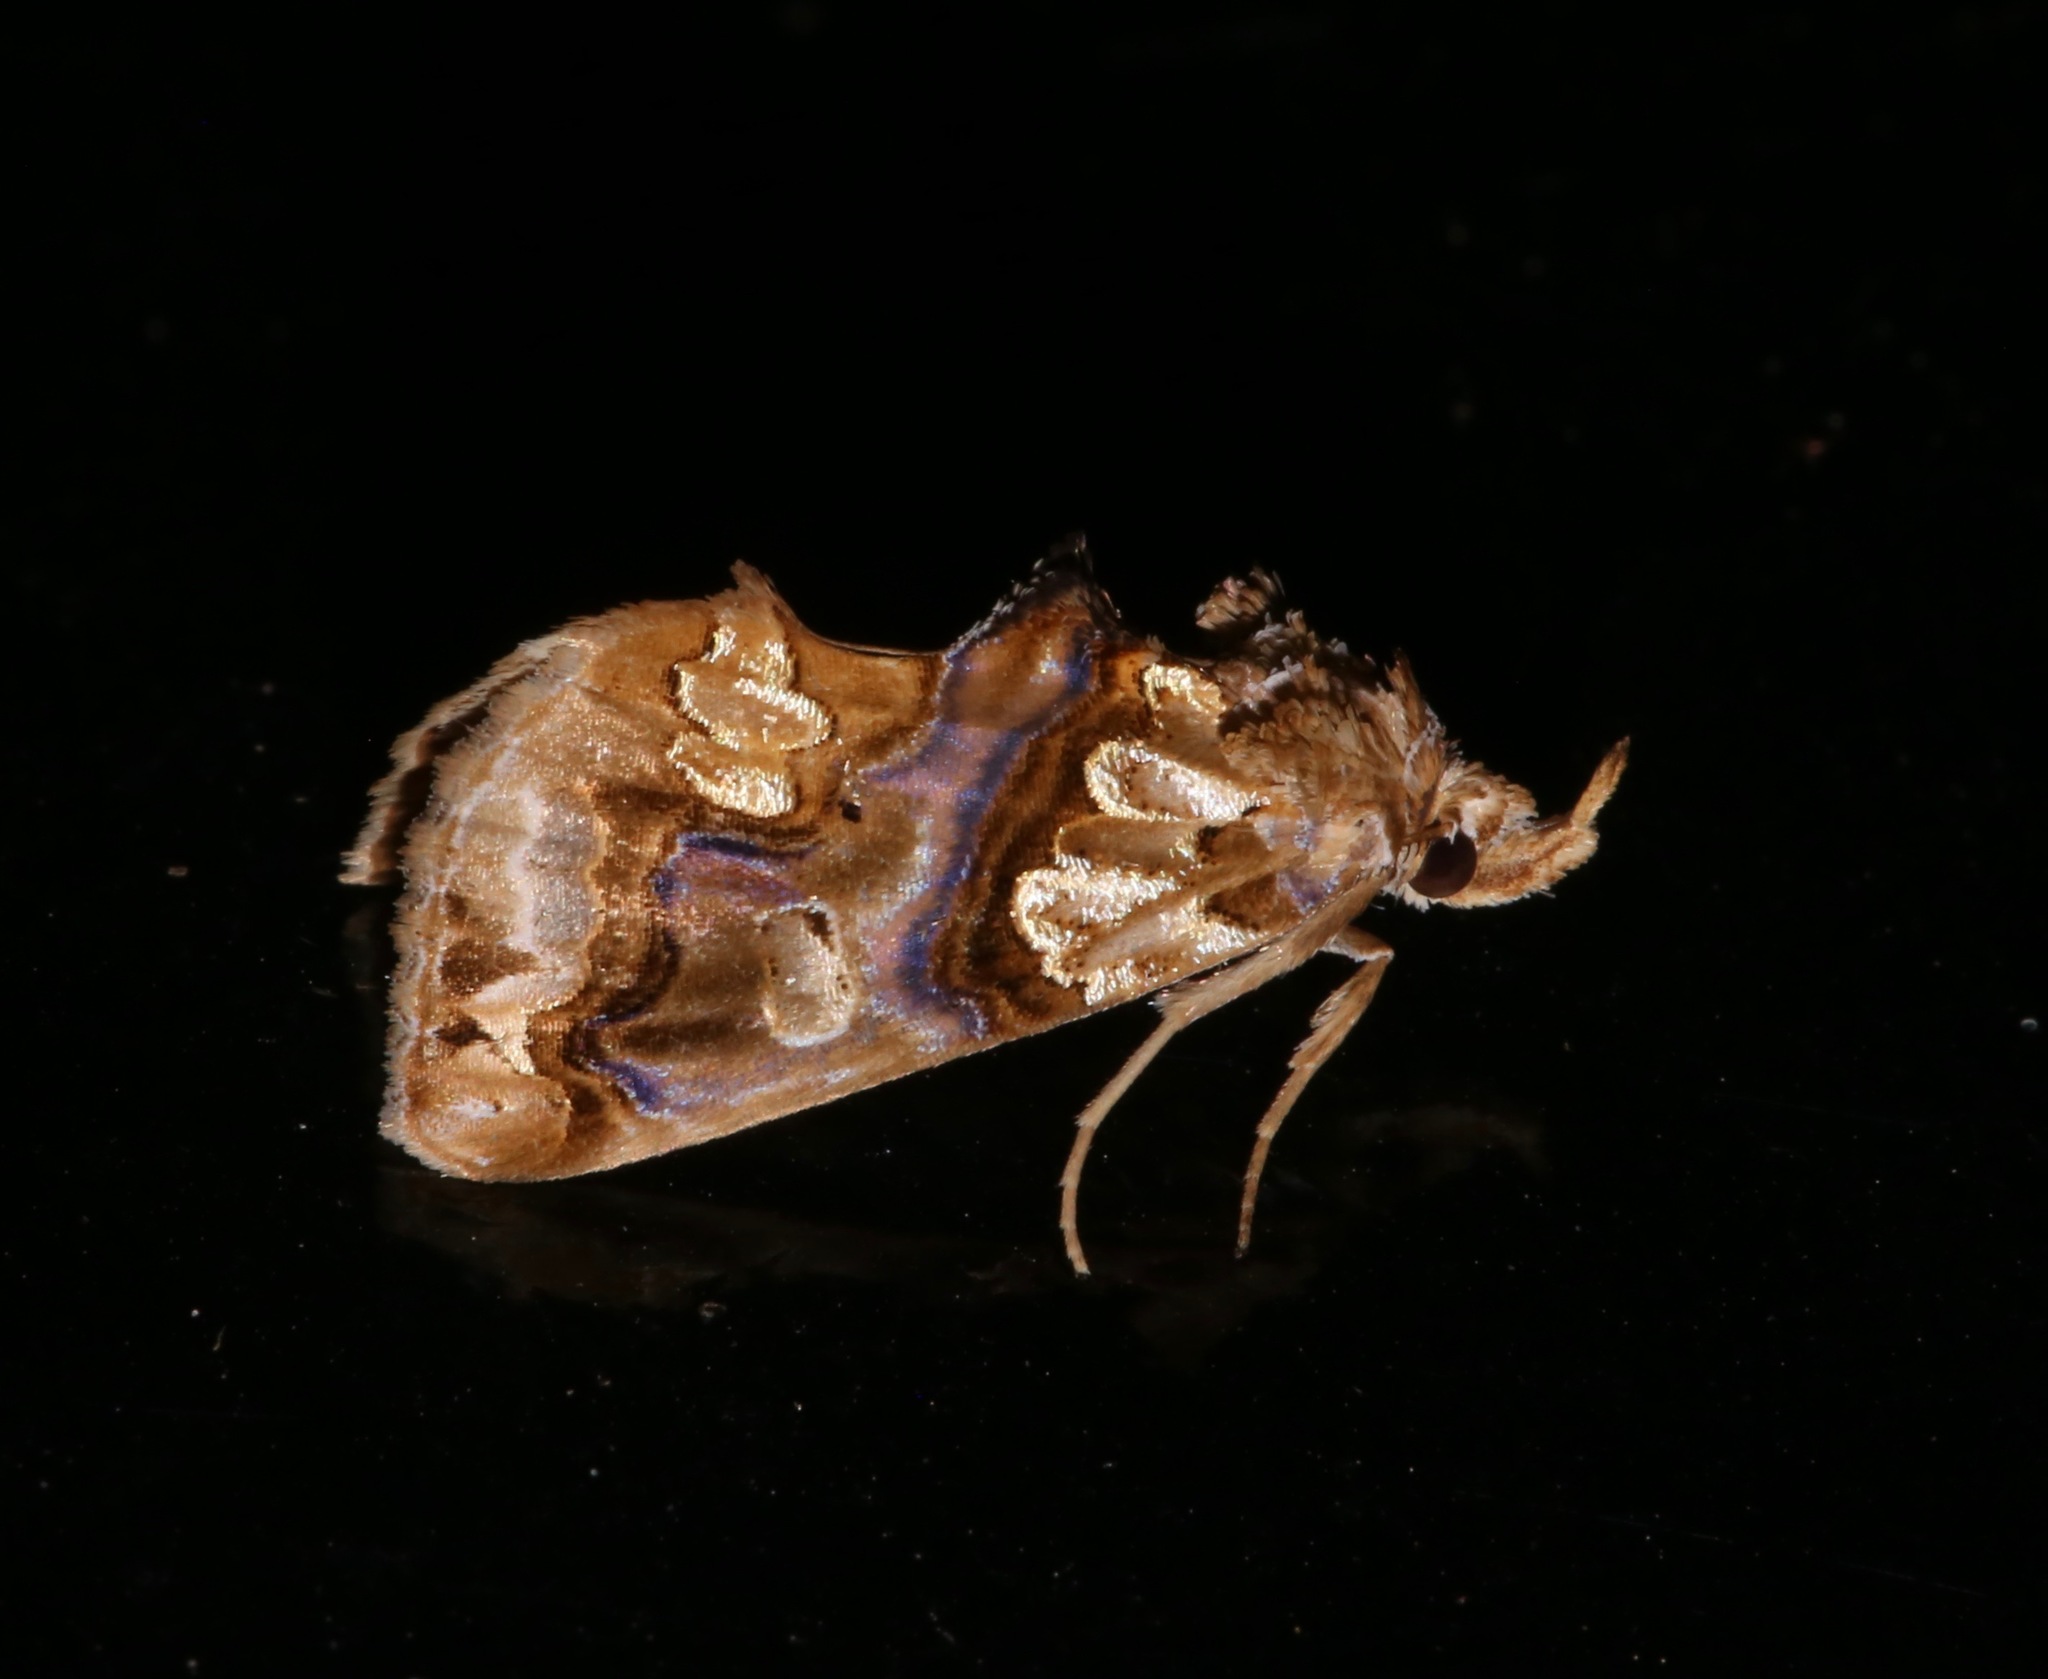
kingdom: Animalia
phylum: Arthropoda
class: Insecta
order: Lepidoptera
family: Erebidae
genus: Plusiodonta
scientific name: Plusiodonta compressipalpis
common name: Moonseed moth
